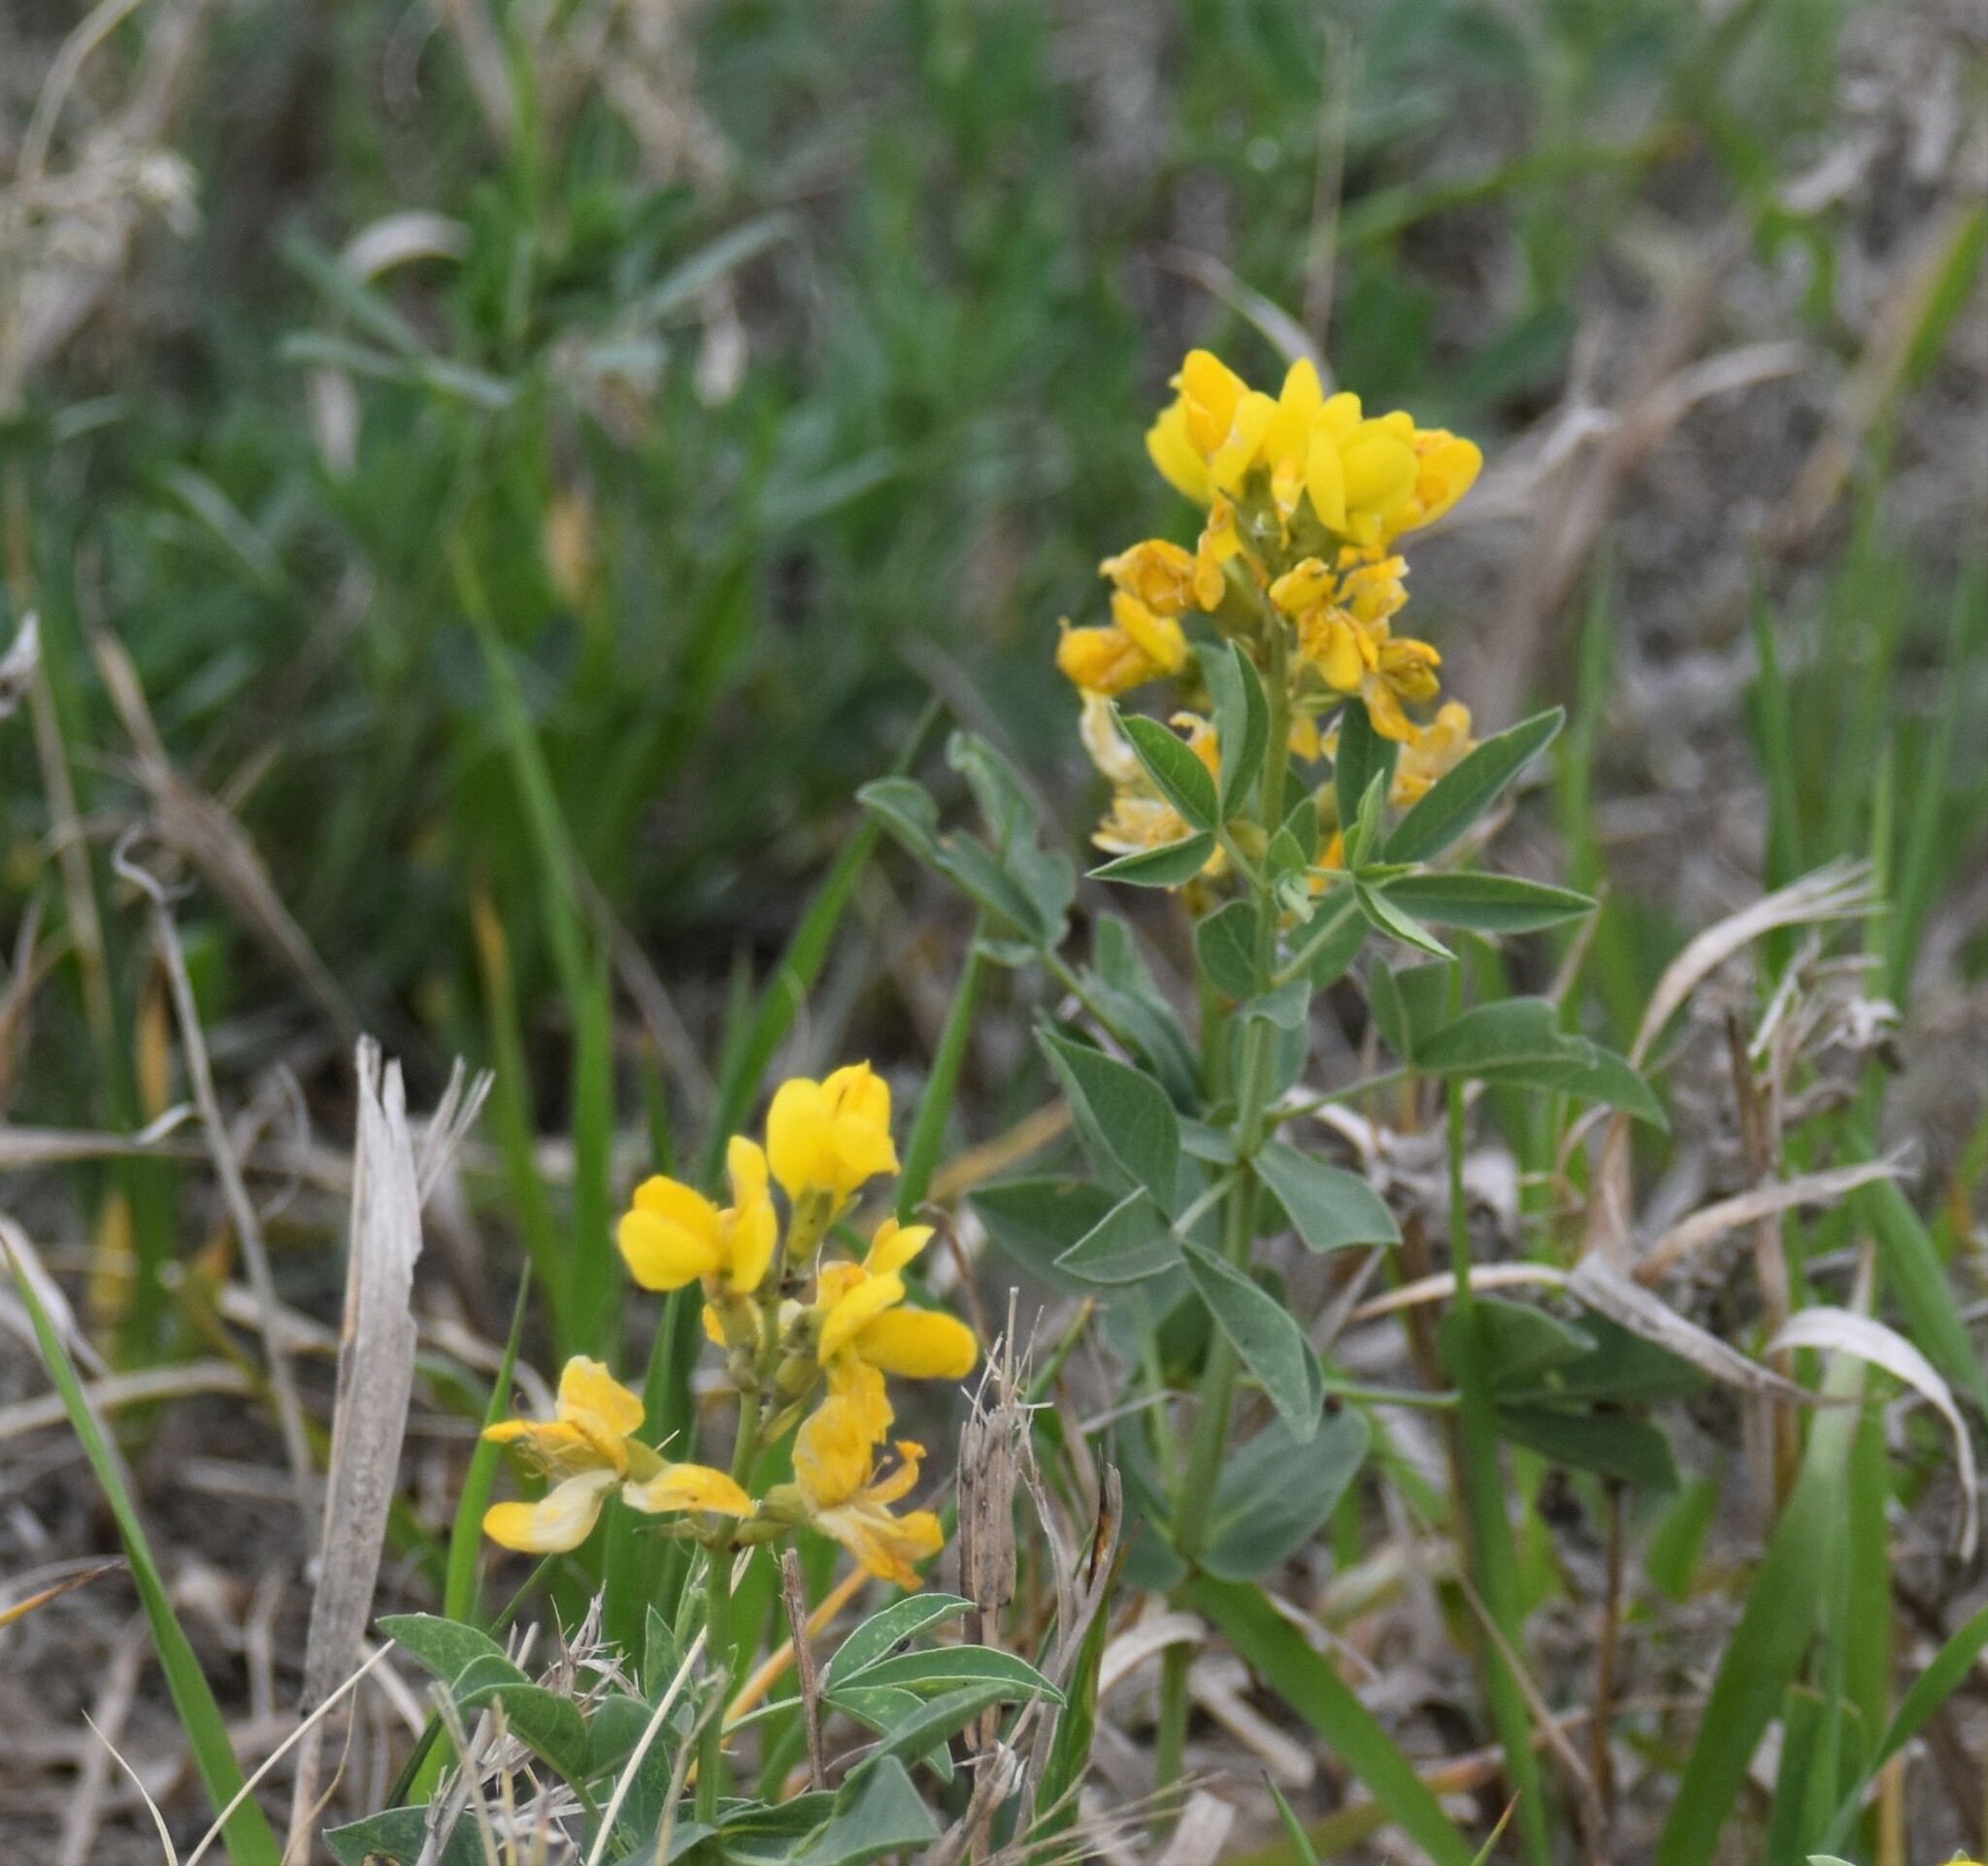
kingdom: Plantae
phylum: Tracheophyta
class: Magnoliopsida
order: Fabales
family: Fabaceae
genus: Thermopsis
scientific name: Thermopsis rhombifolia
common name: Circle-pod-pea
